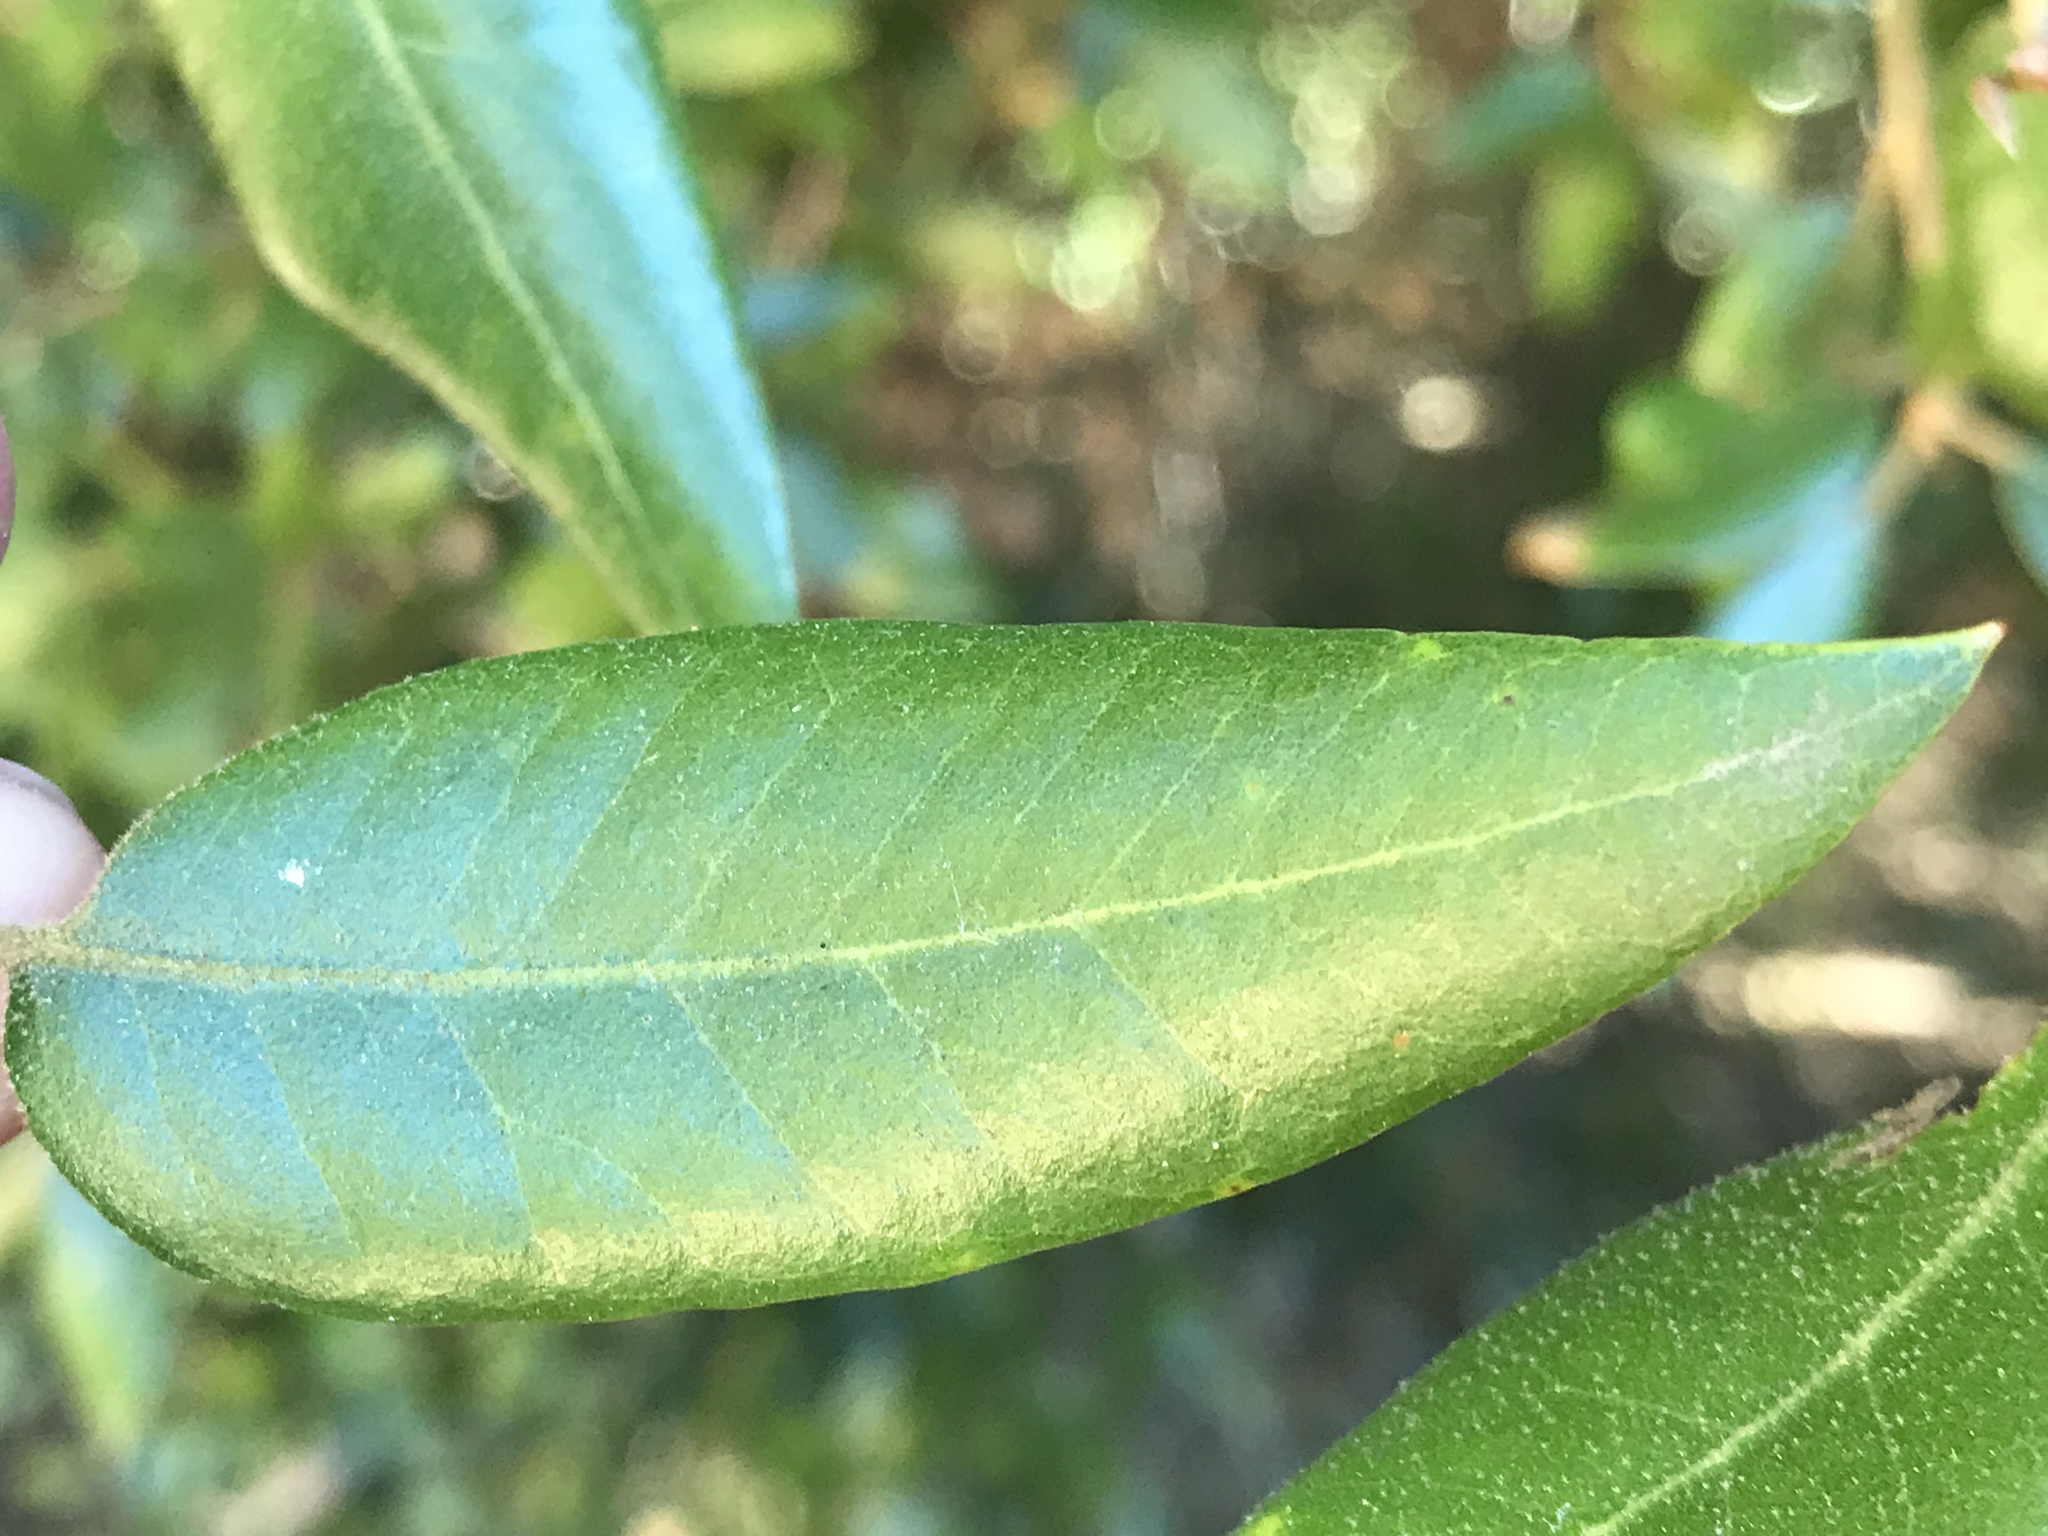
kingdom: Plantae
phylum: Tracheophyta
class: Magnoliopsida
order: Fagales
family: Fagaceae
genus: Quercus
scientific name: Quercus chrysolepis
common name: Canyon live oak
